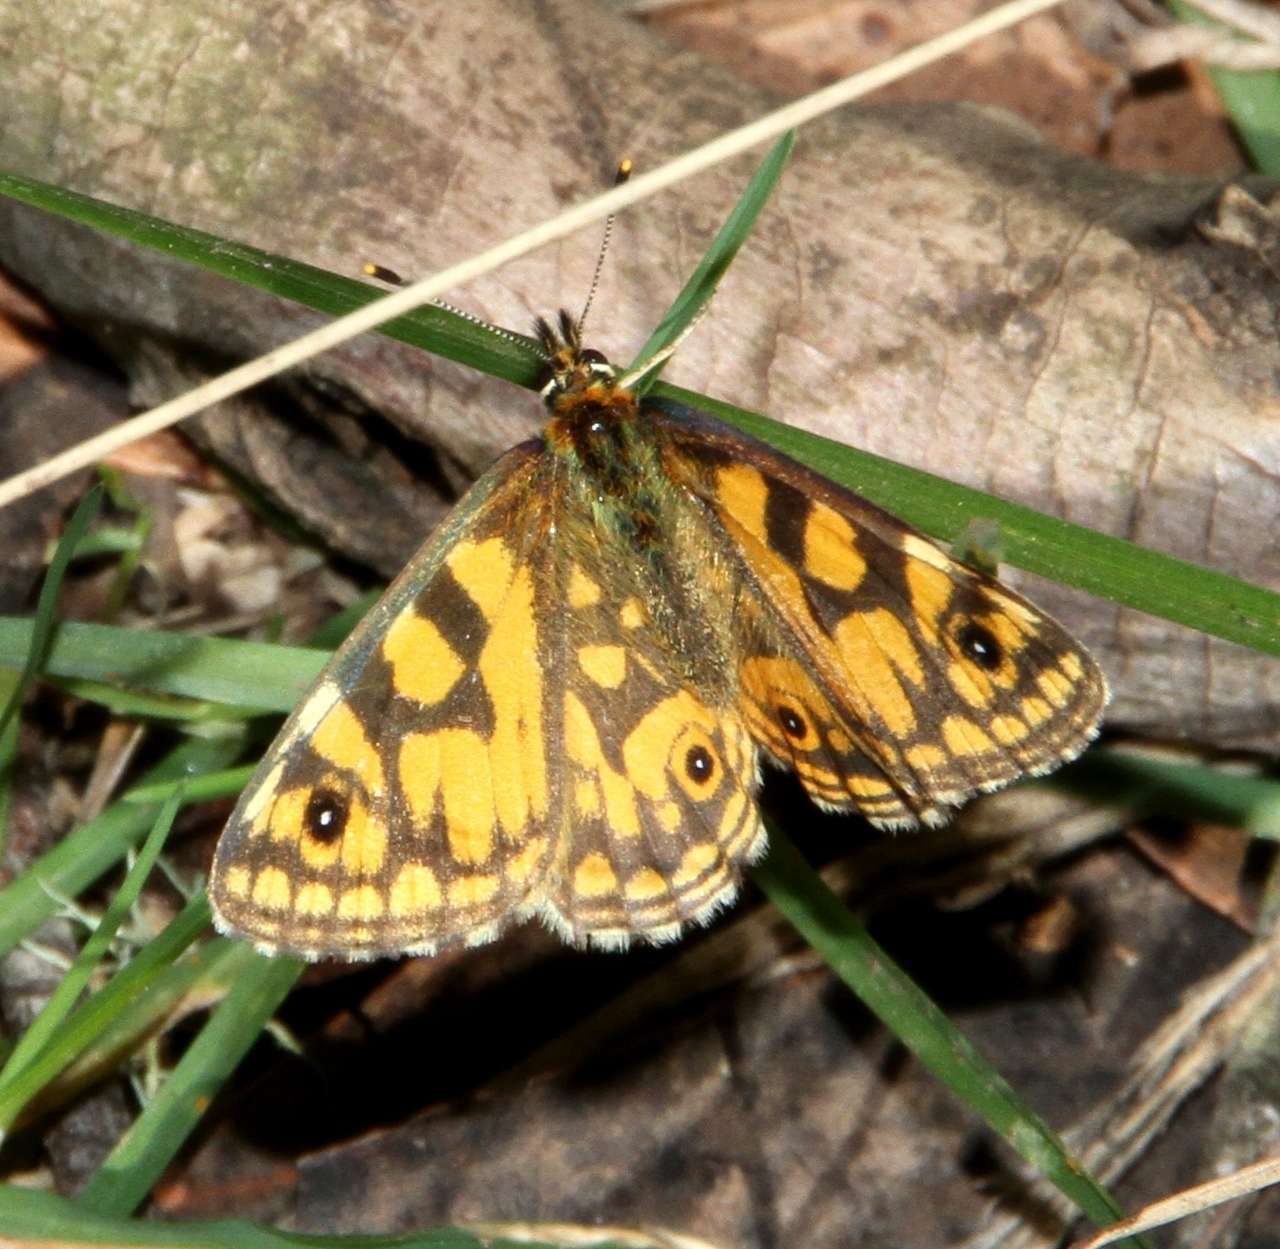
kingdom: Animalia
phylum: Arthropoda
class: Insecta
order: Lepidoptera
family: Nymphalidae
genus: Oreixenica
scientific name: Oreixenica lathoniella
